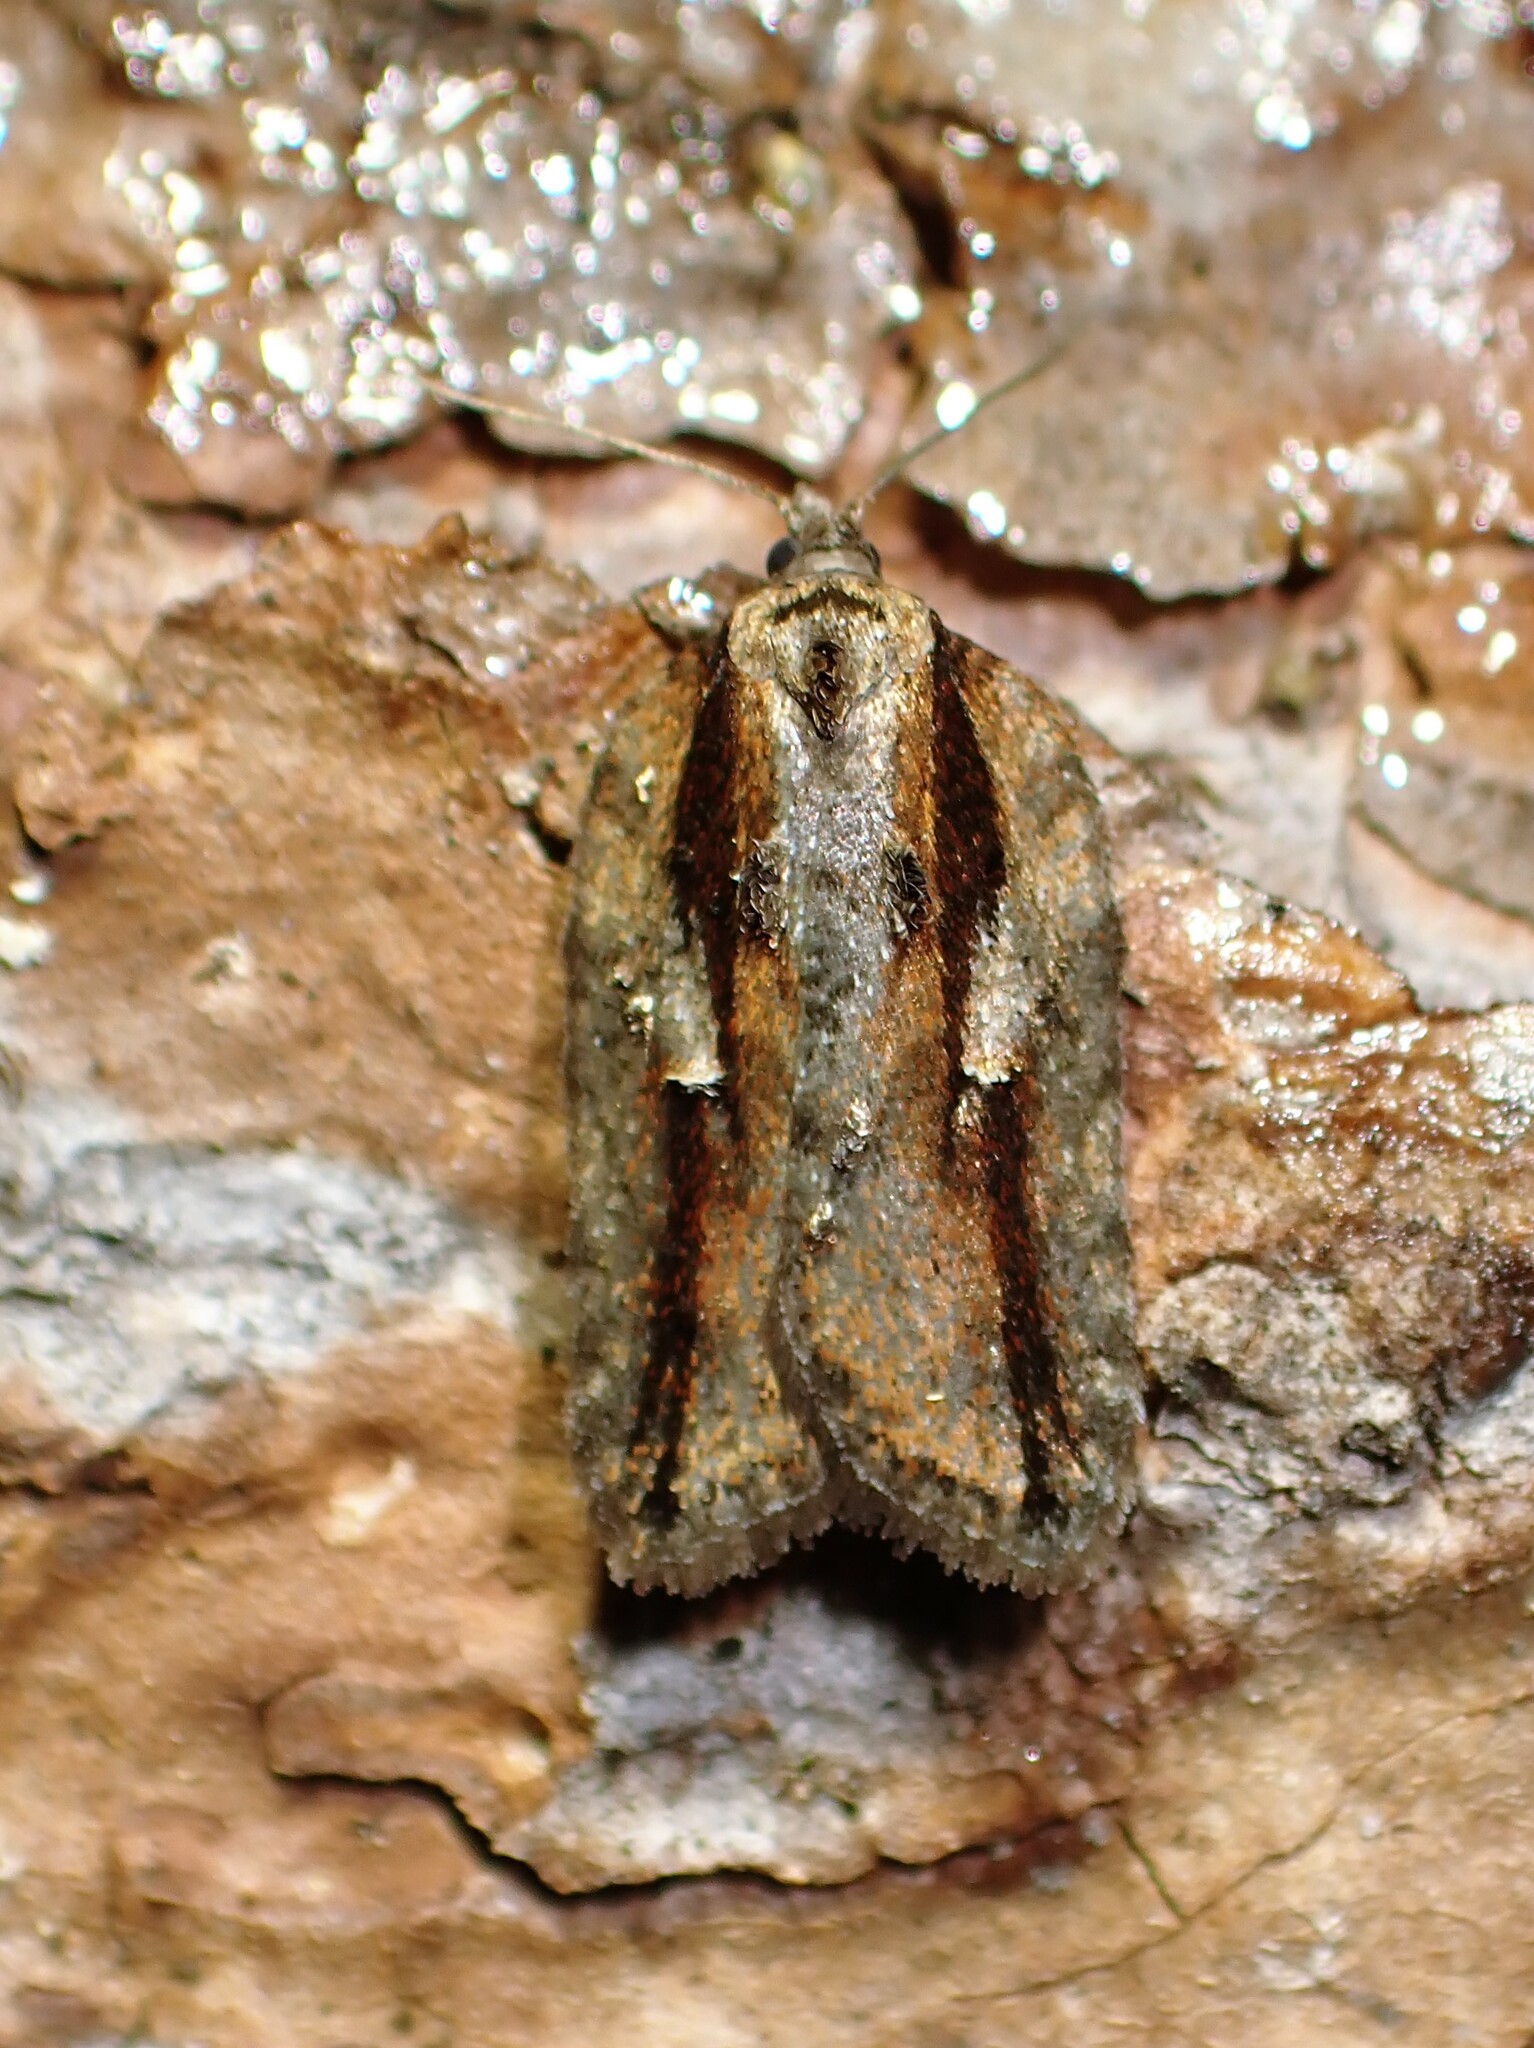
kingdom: Animalia
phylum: Arthropoda
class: Insecta
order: Lepidoptera
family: Tortricidae
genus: Acleris
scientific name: Acleris hastiana
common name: Sallow button
